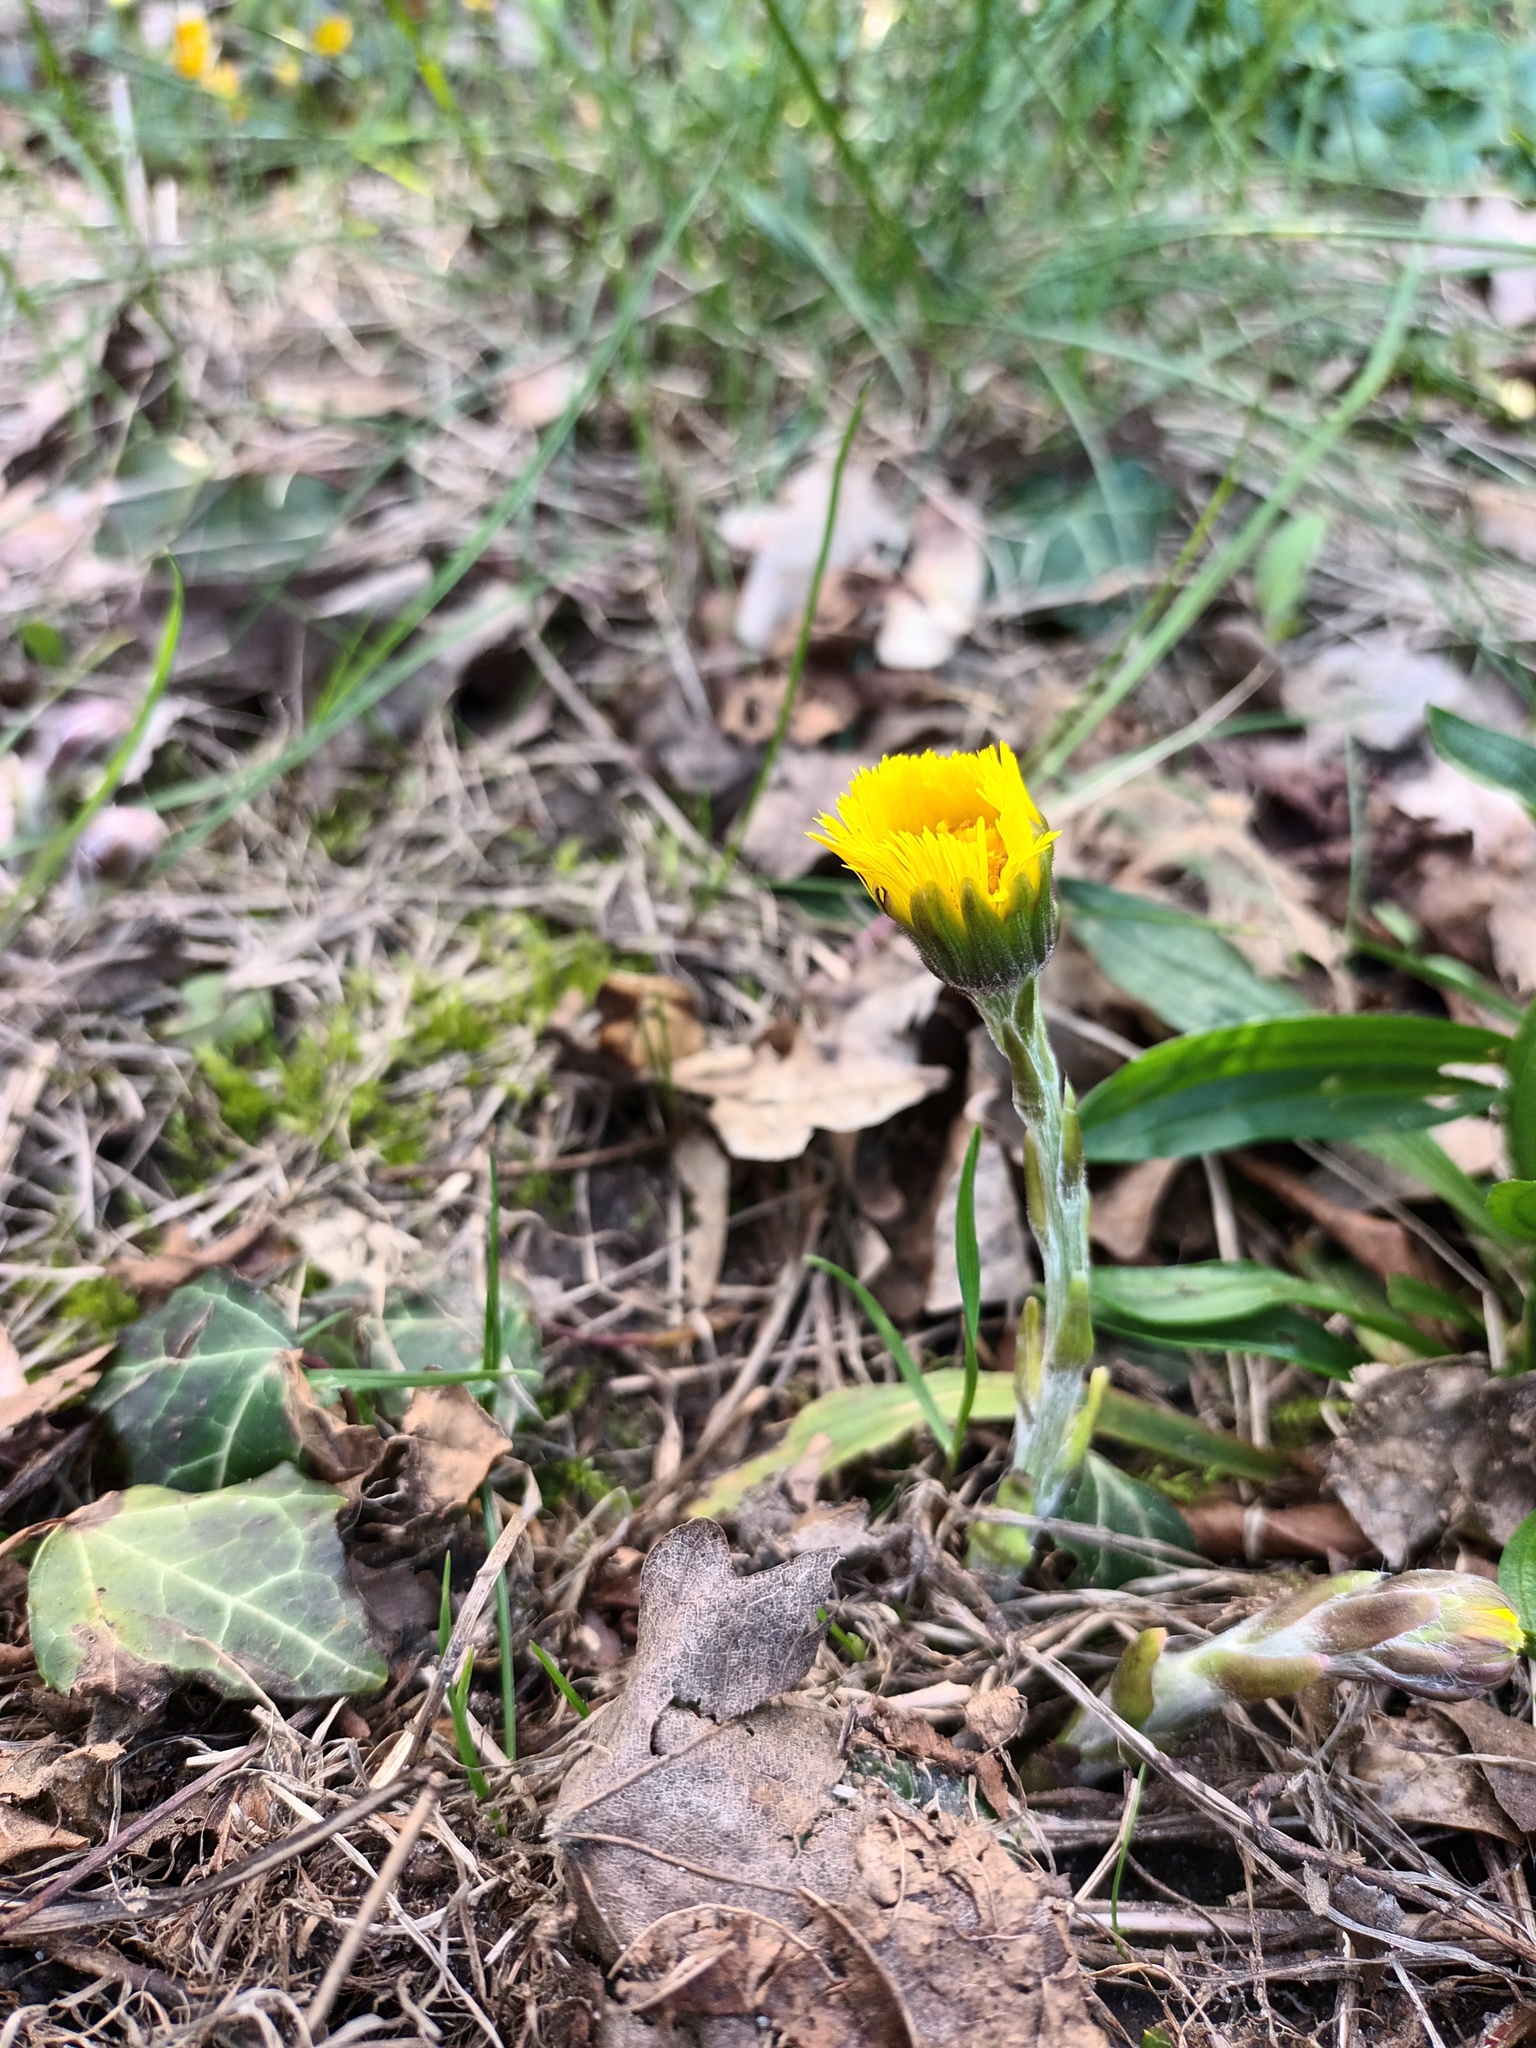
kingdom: Plantae
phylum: Tracheophyta
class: Magnoliopsida
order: Asterales
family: Asteraceae
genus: Tussilago
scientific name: Tussilago farfara
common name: Coltsfoot
